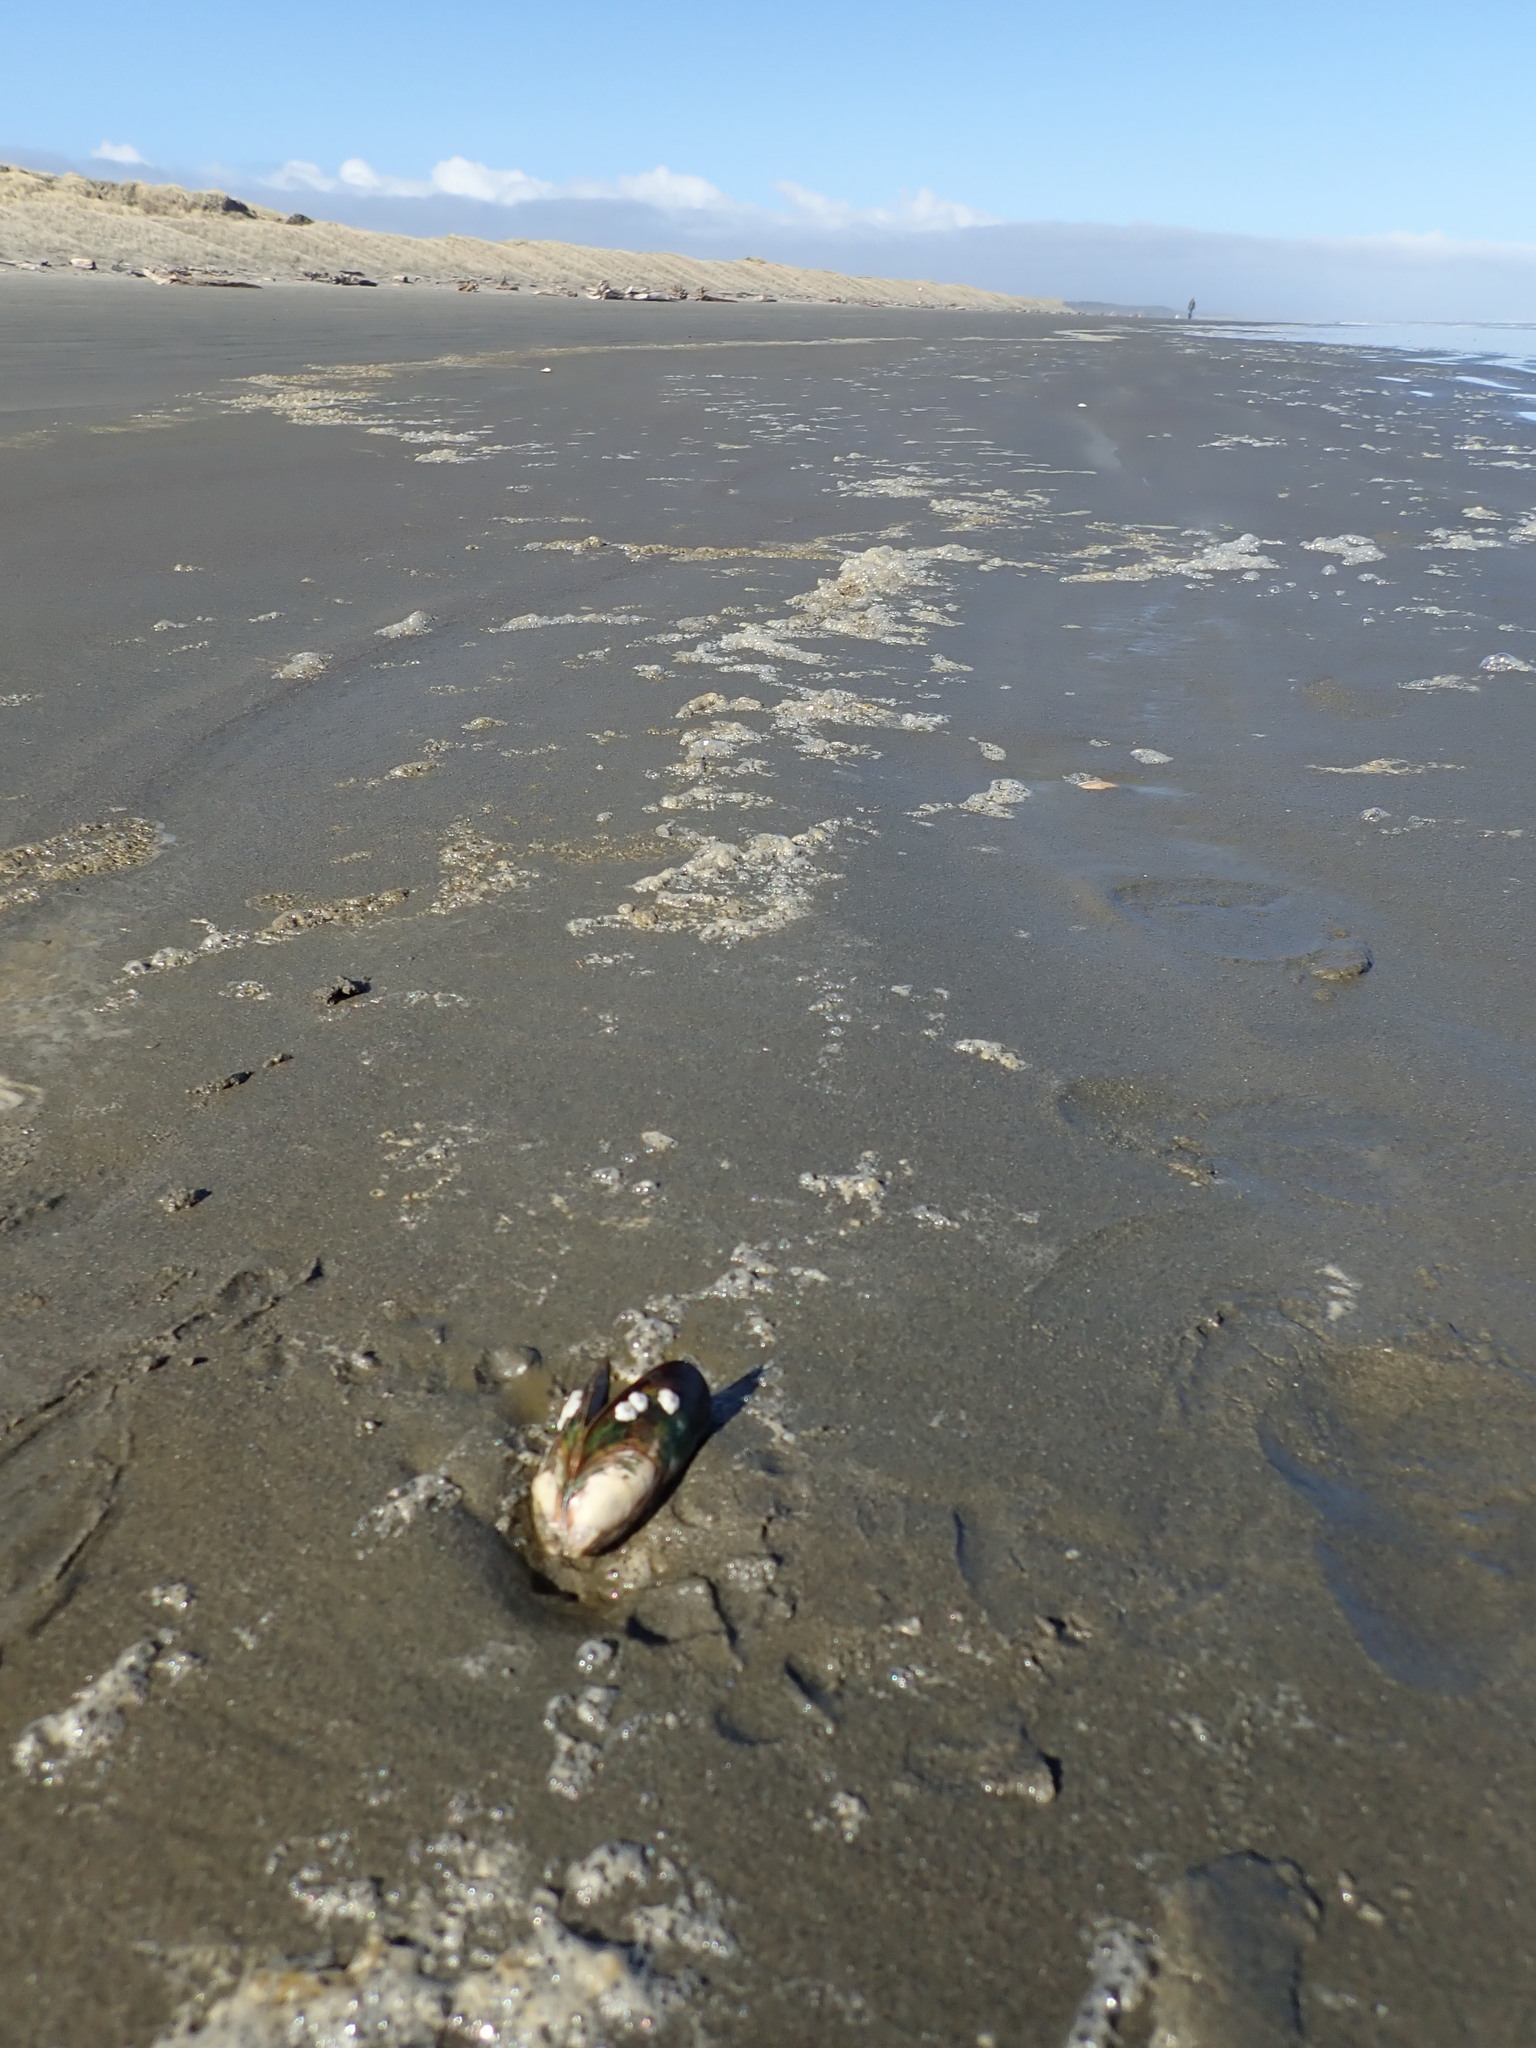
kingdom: Animalia
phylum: Arthropoda
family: Elminiidae
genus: Austrominius
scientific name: Austrominius modestus
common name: Australasian barnacle
